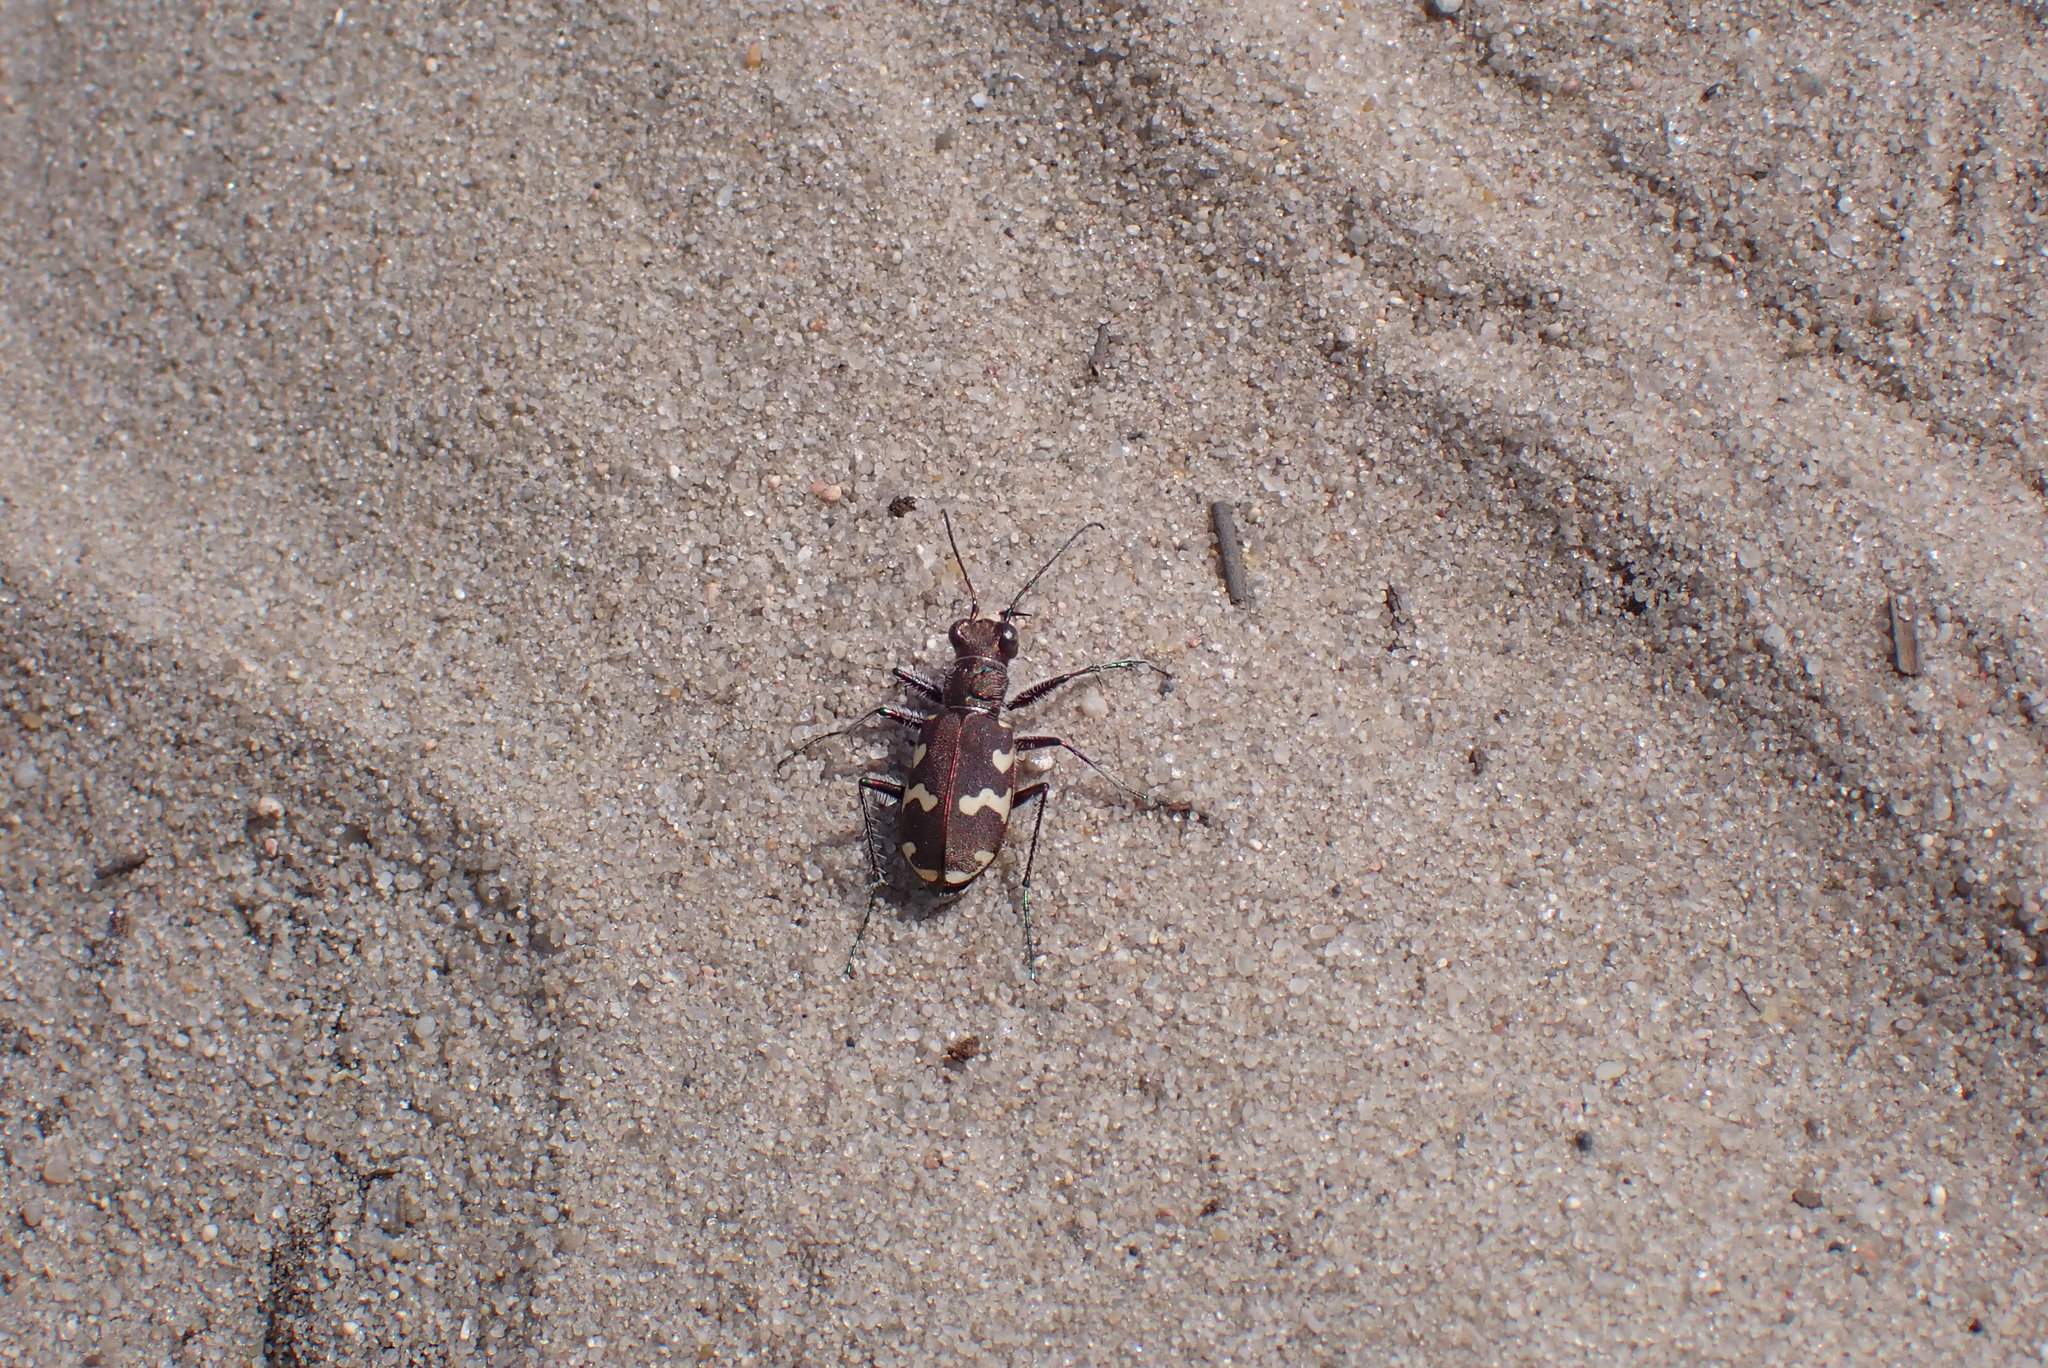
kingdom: Animalia
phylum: Arthropoda
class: Insecta
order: Coleoptera
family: Carabidae
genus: Cicindela
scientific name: Cicindela hybrida
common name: Northern dune tiger beetle
